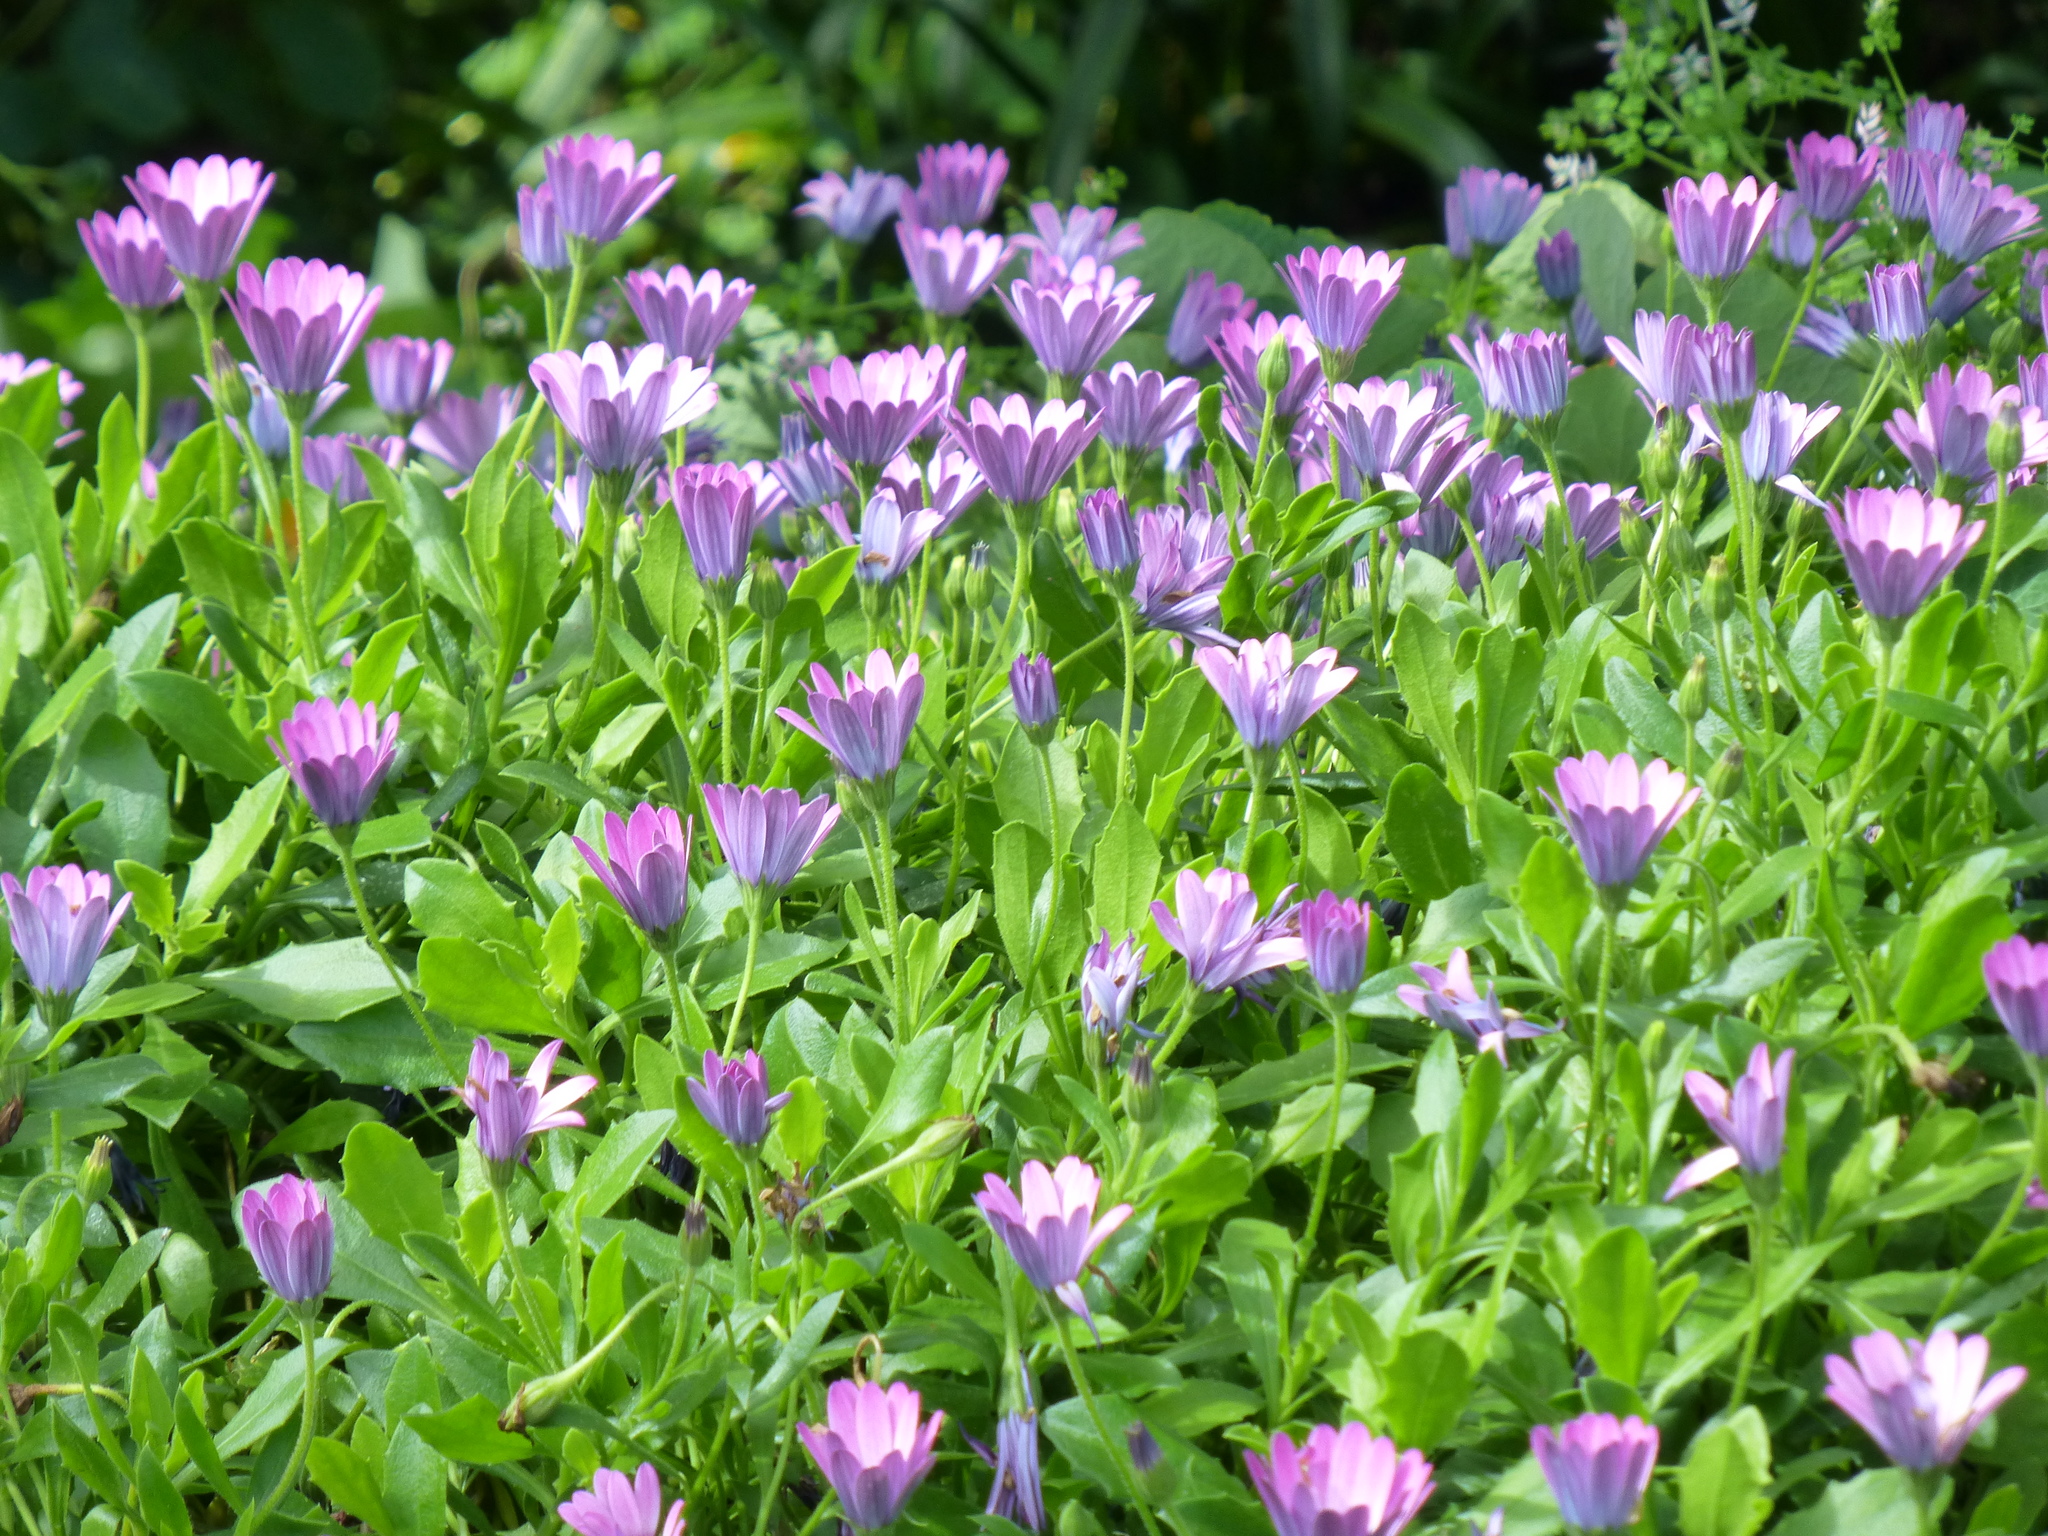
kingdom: Plantae
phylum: Tracheophyta
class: Magnoliopsida
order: Asterales
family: Asteraceae
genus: Dimorphotheca
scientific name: Dimorphotheca jucunda
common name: Osteospermum
